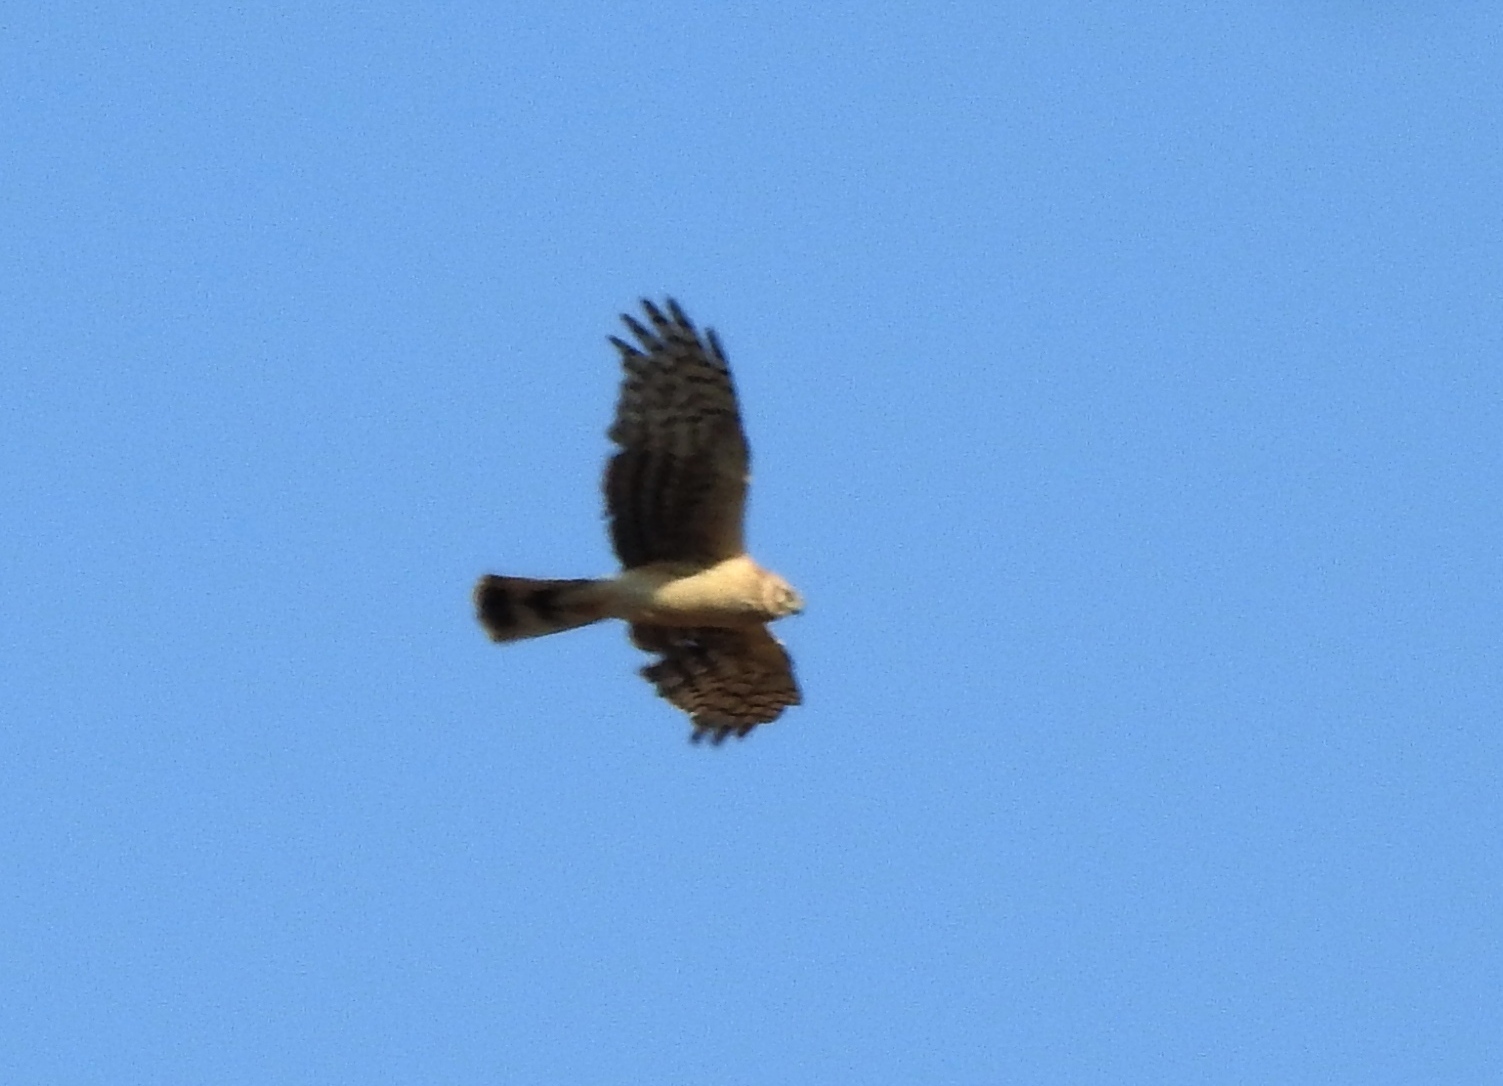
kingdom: Animalia
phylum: Chordata
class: Aves
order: Accipitriformes
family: Accipitridae
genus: Circus
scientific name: Circus cyaneus
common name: Hen harrier
